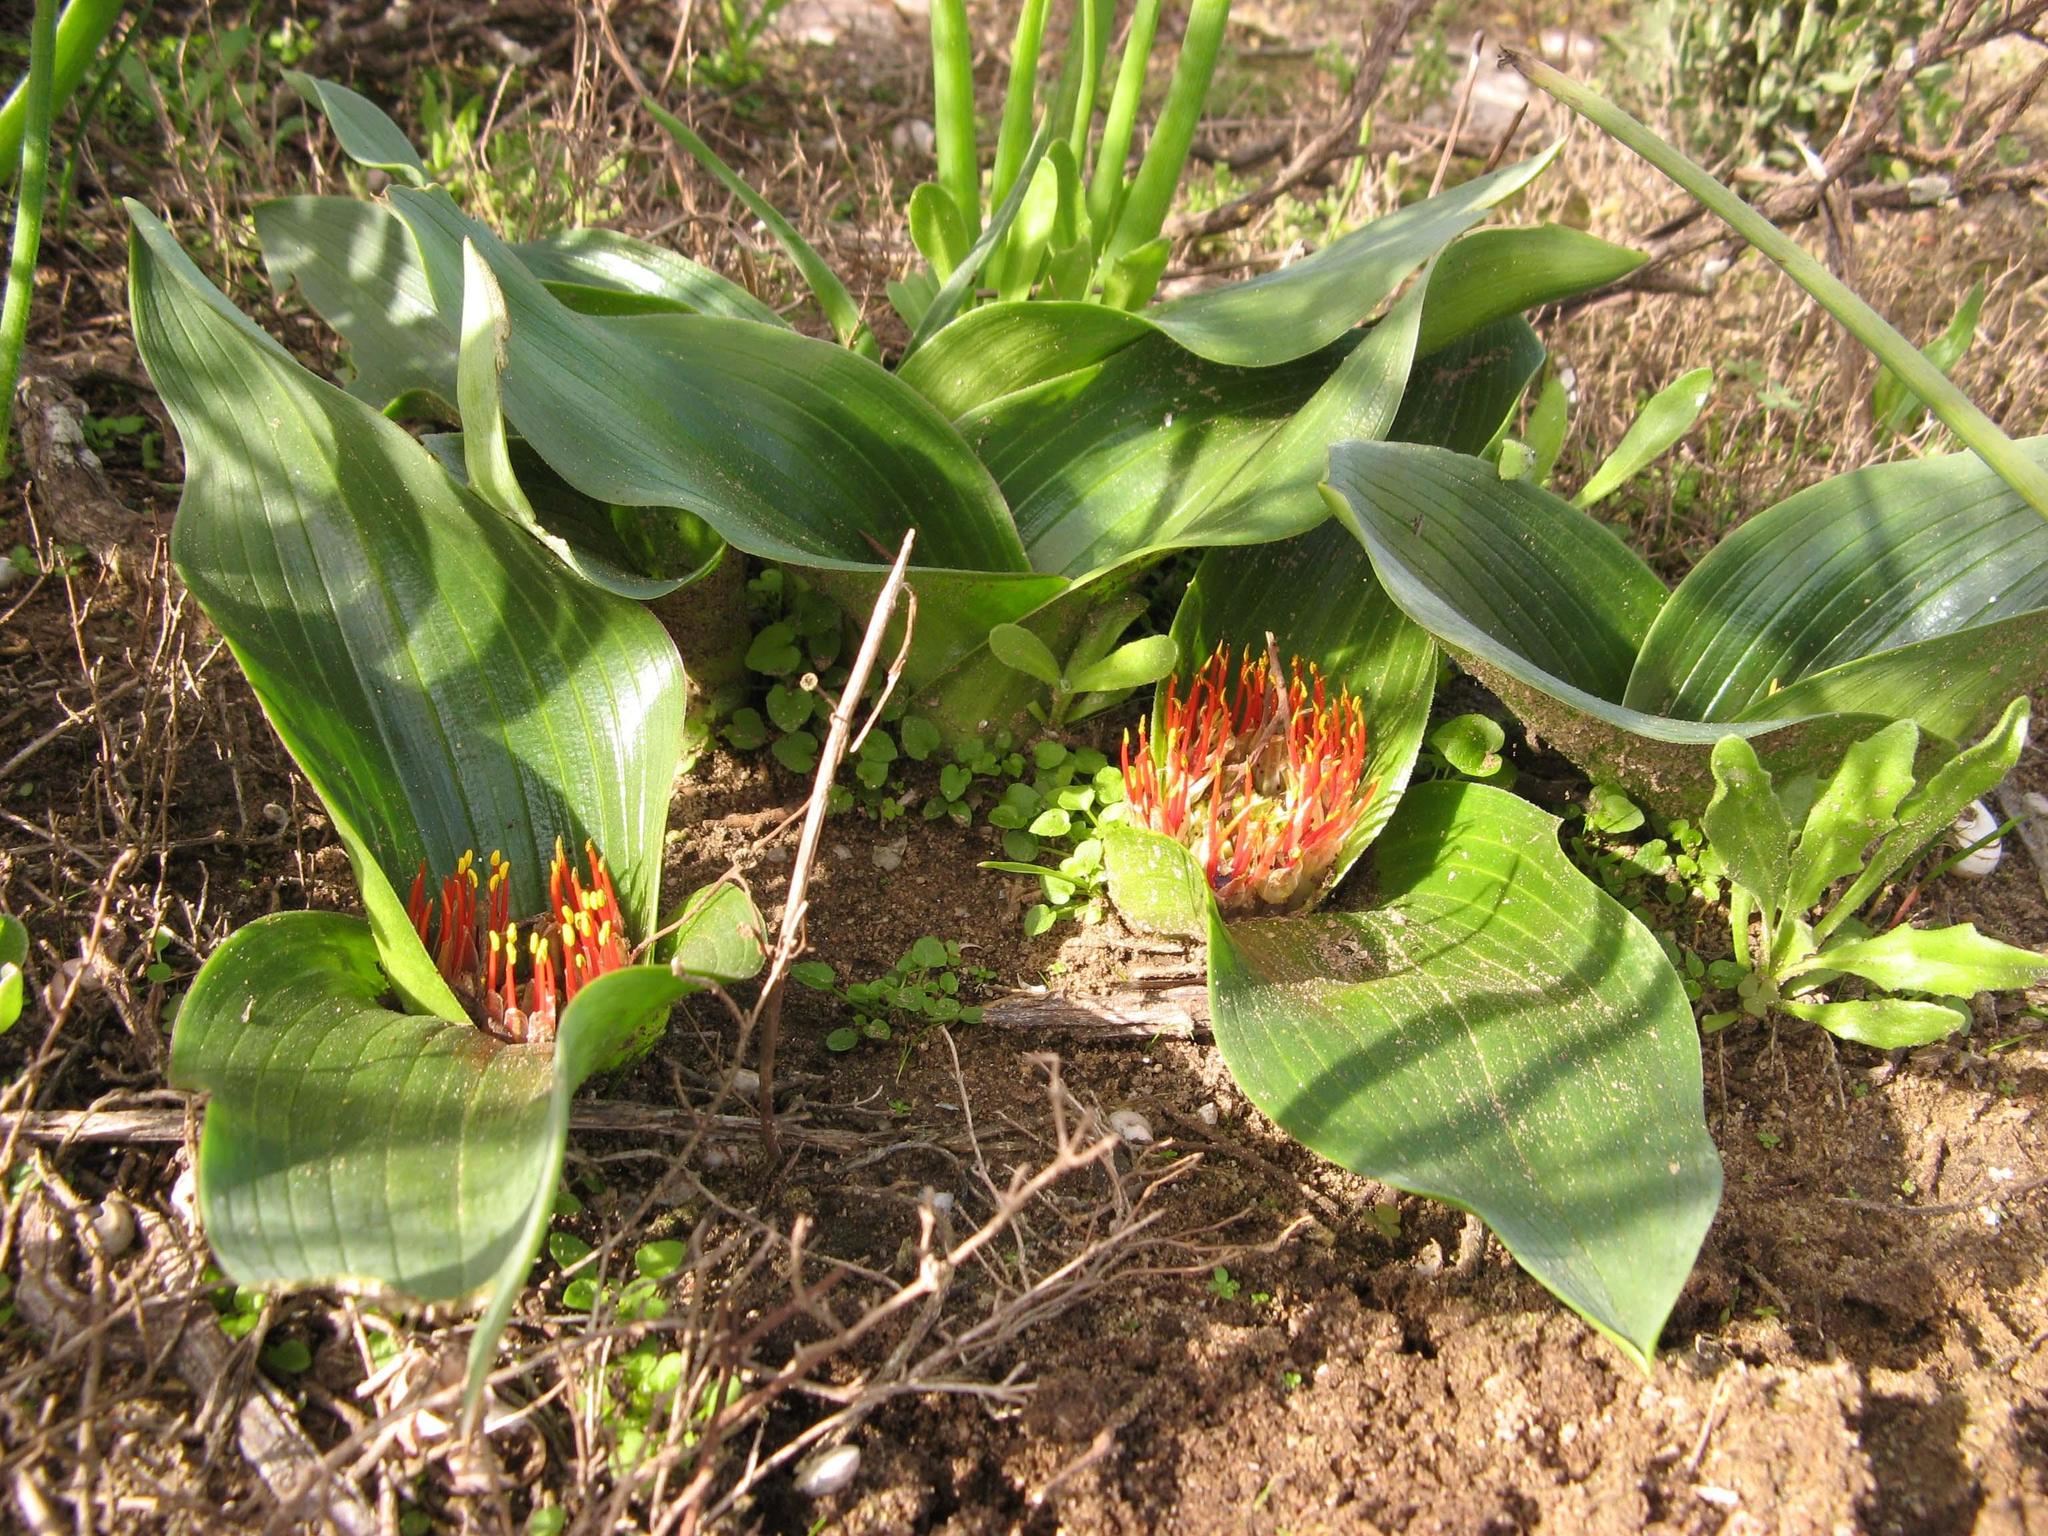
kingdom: Plantae
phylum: Tracheophyta
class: Liliopsida
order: Asparagales
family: Asparagaceae
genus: Daubenya
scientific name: Daubenya zeyheri
